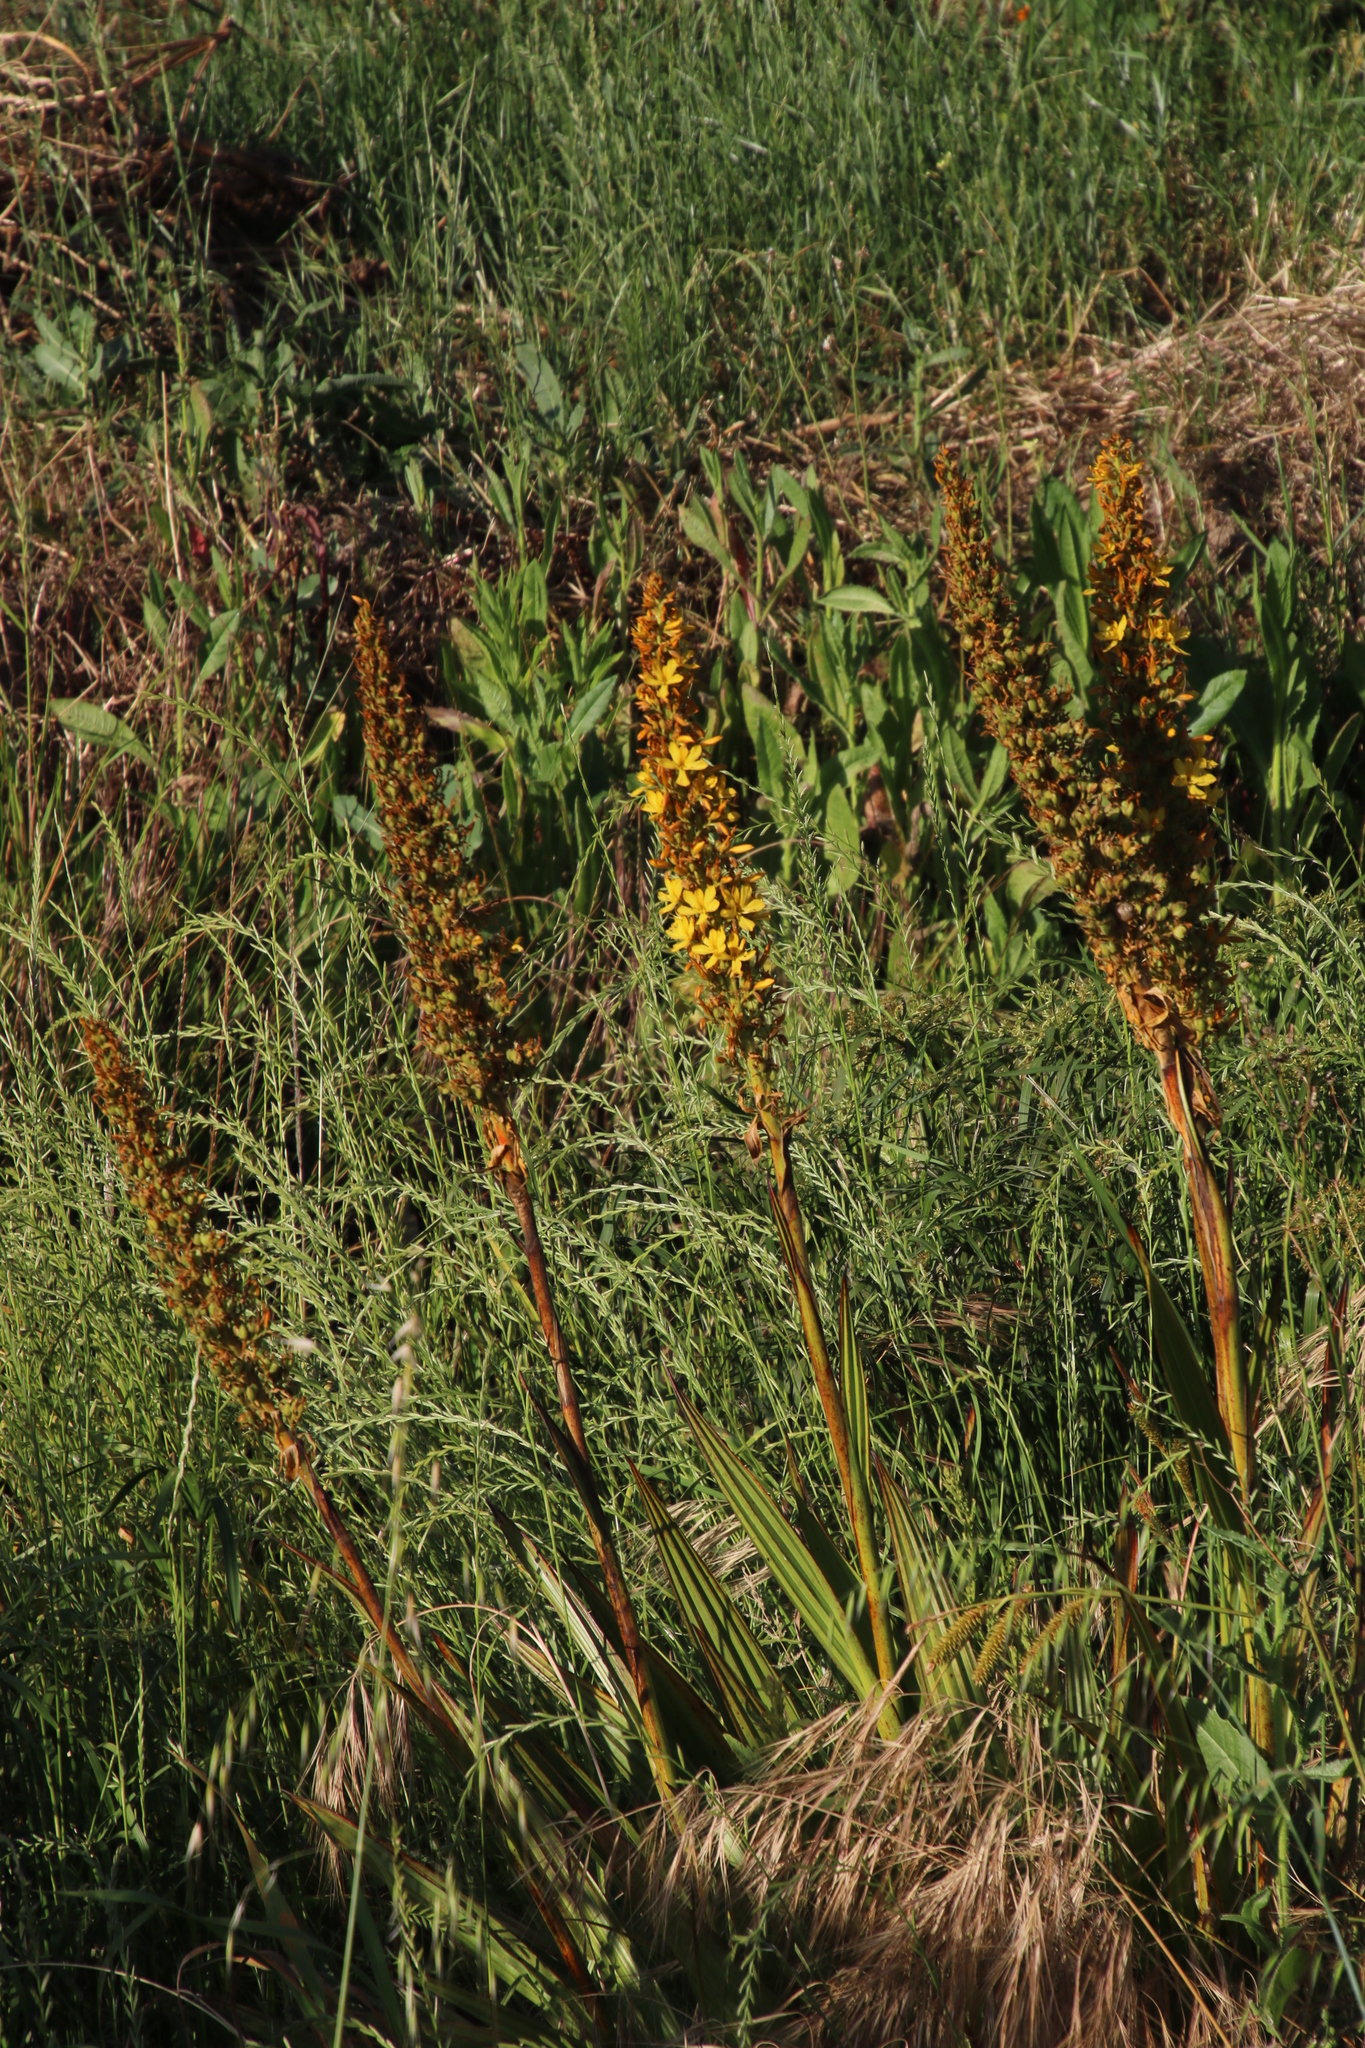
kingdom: Plantae
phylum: Tracheophyta
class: Liliopsida
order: Commelinales
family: Haemodoraceae
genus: Wachendorfia
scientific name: Wachendorfia thyrsiflora
